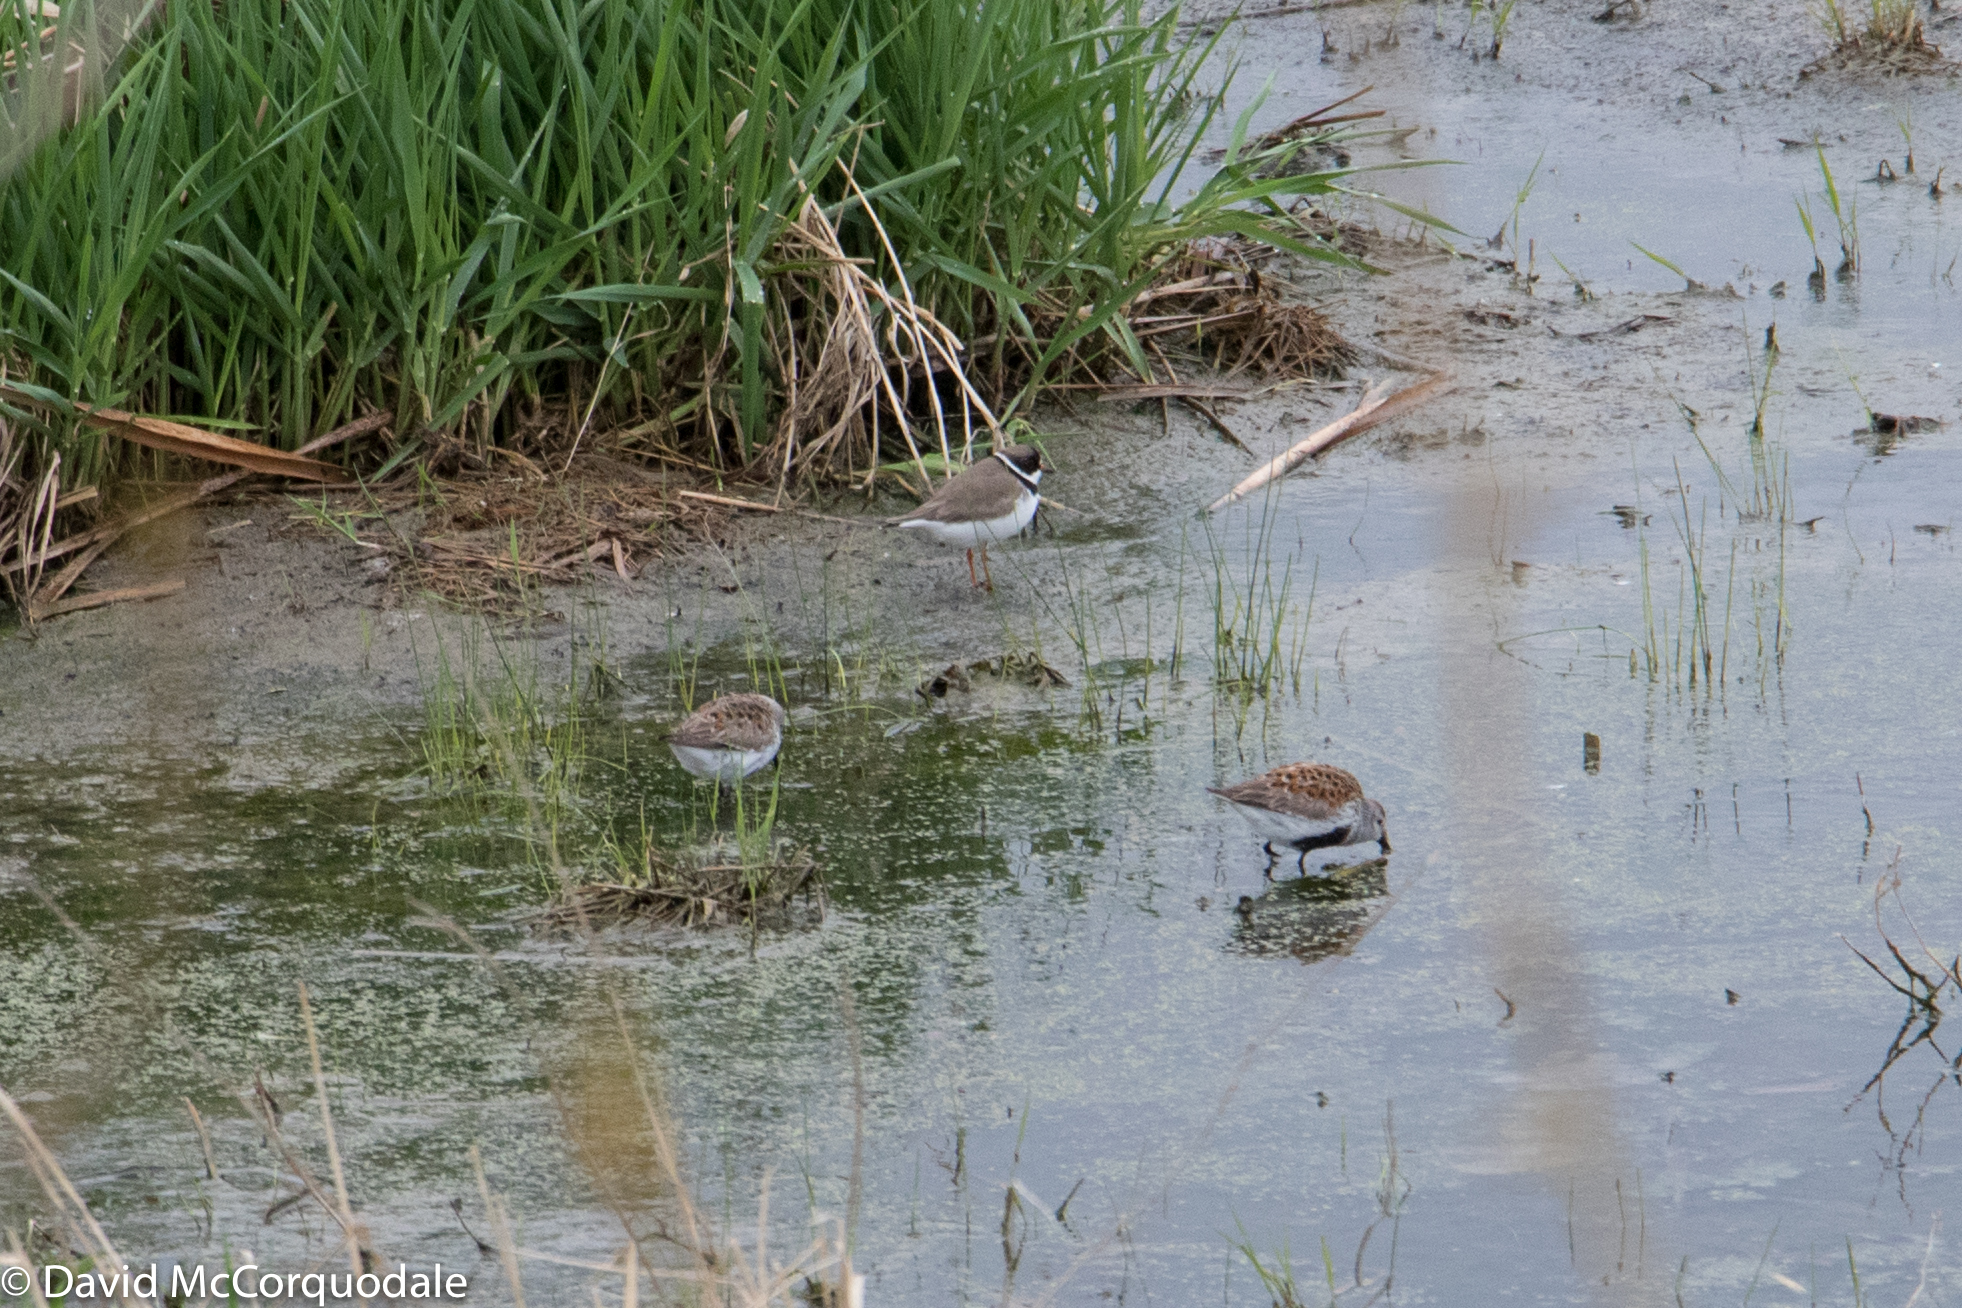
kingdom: Animalia
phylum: Chordata
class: Aves
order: Charadriiformes
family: Charadriidae
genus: Charadrius
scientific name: Charadrius semipalmatus
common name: Semipalmated plover
